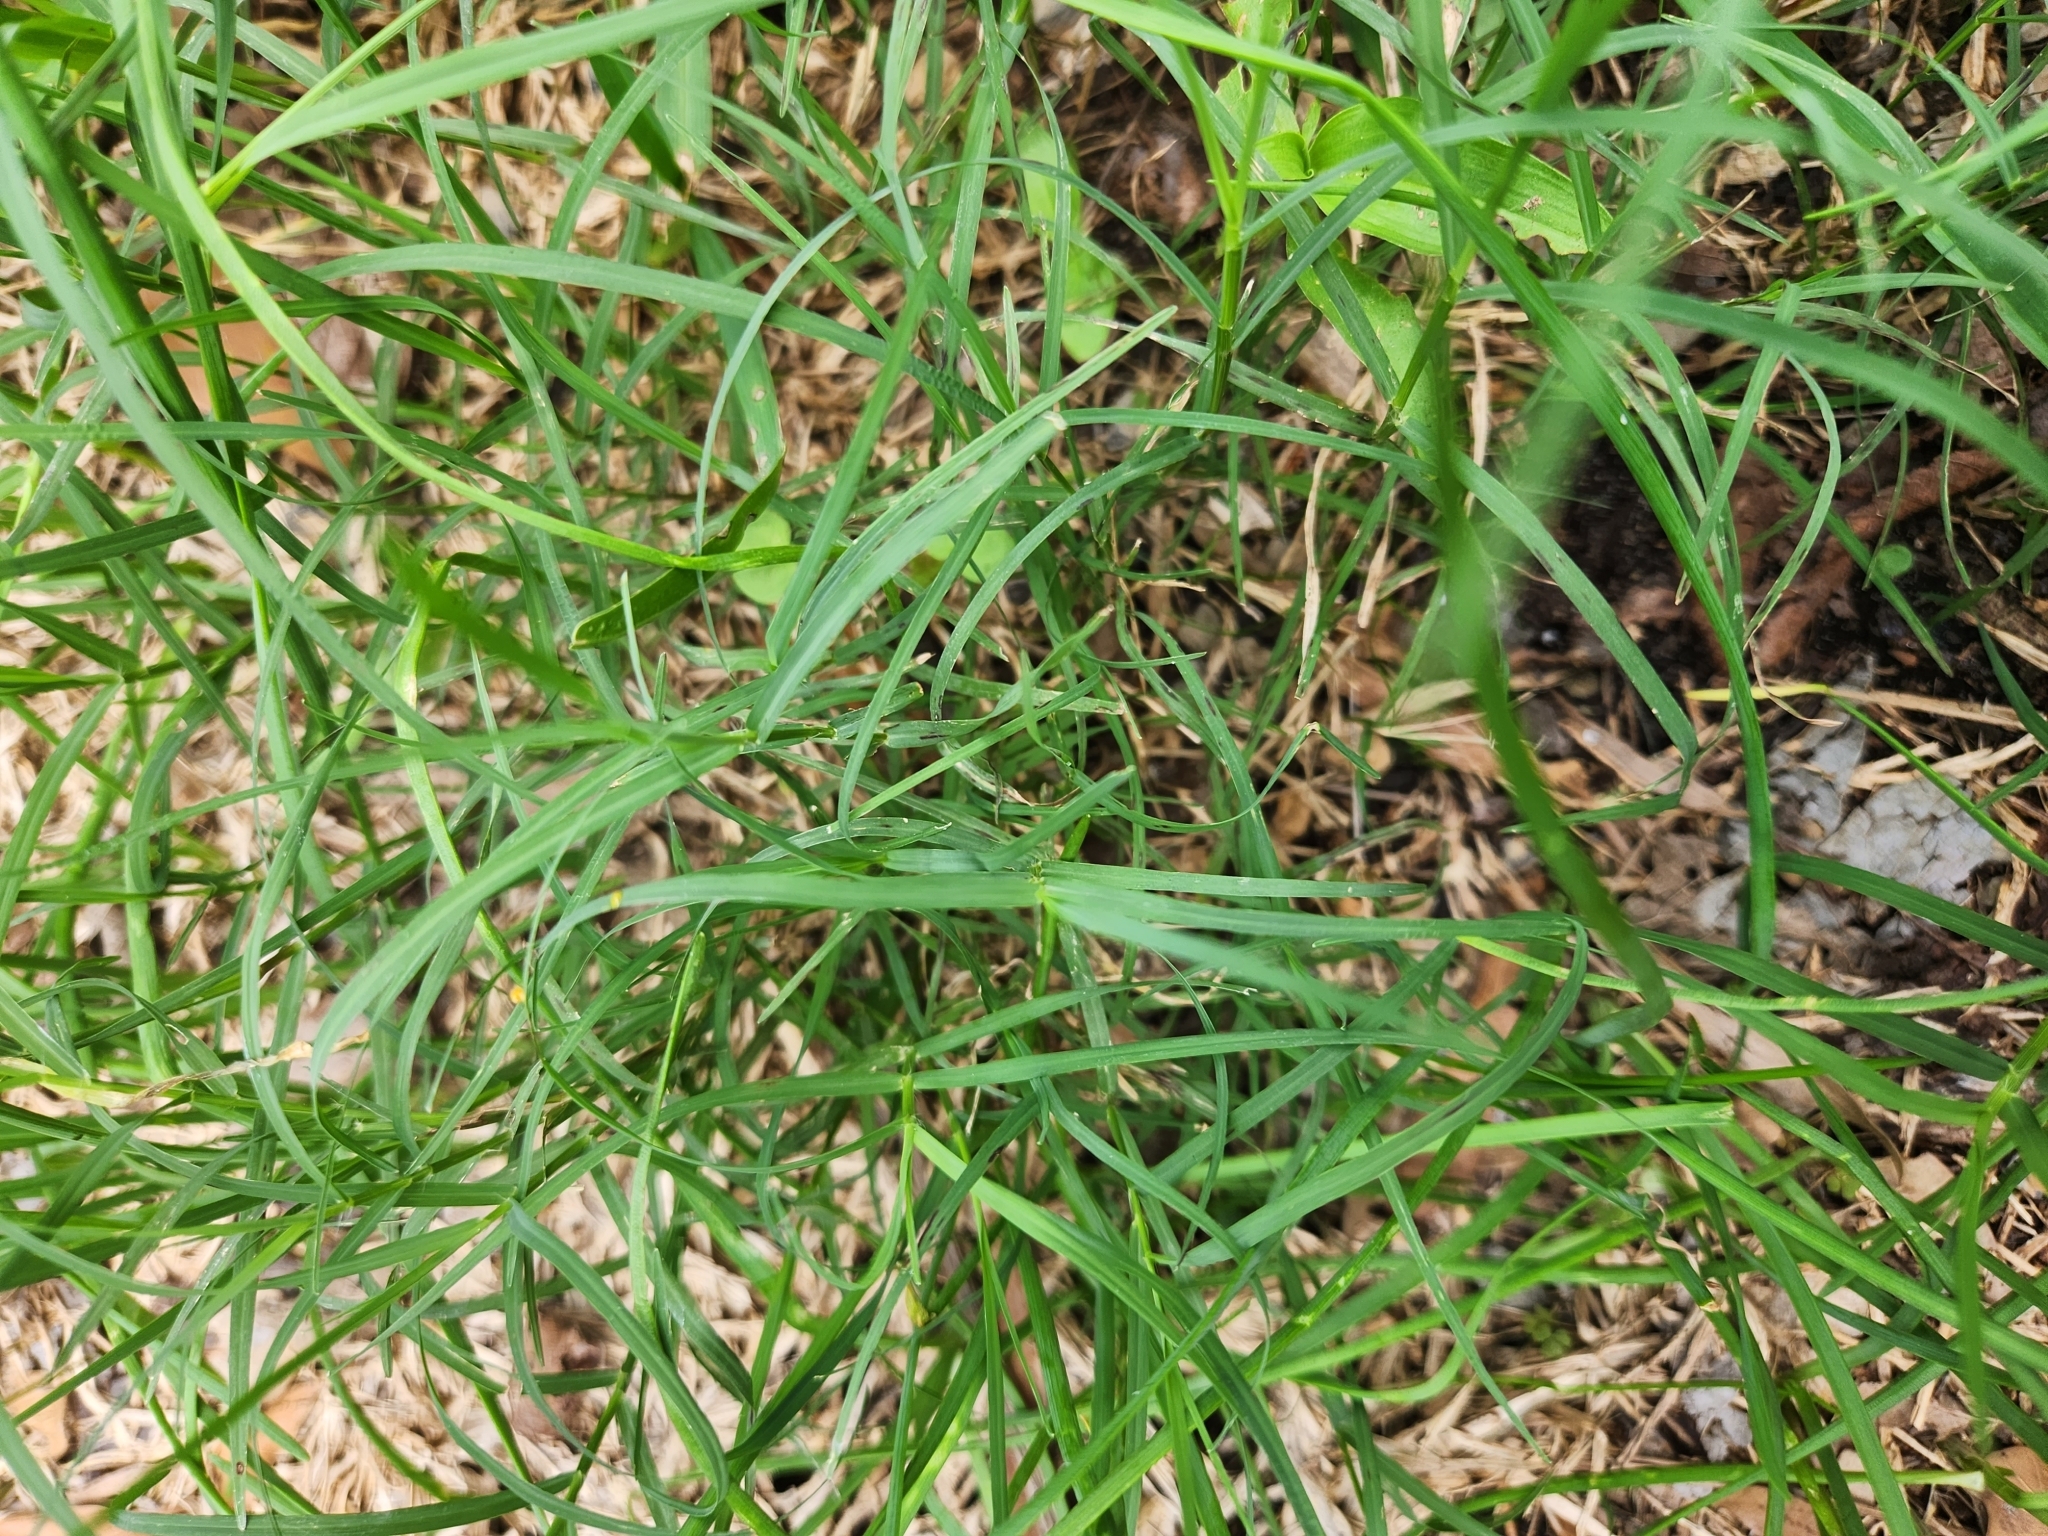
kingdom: Plantae
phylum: Tracheophyta
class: Liliopsida
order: Poales
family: Poaceae
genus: Cynodon
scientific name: Cynodon dactylon
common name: Bermuda grass
